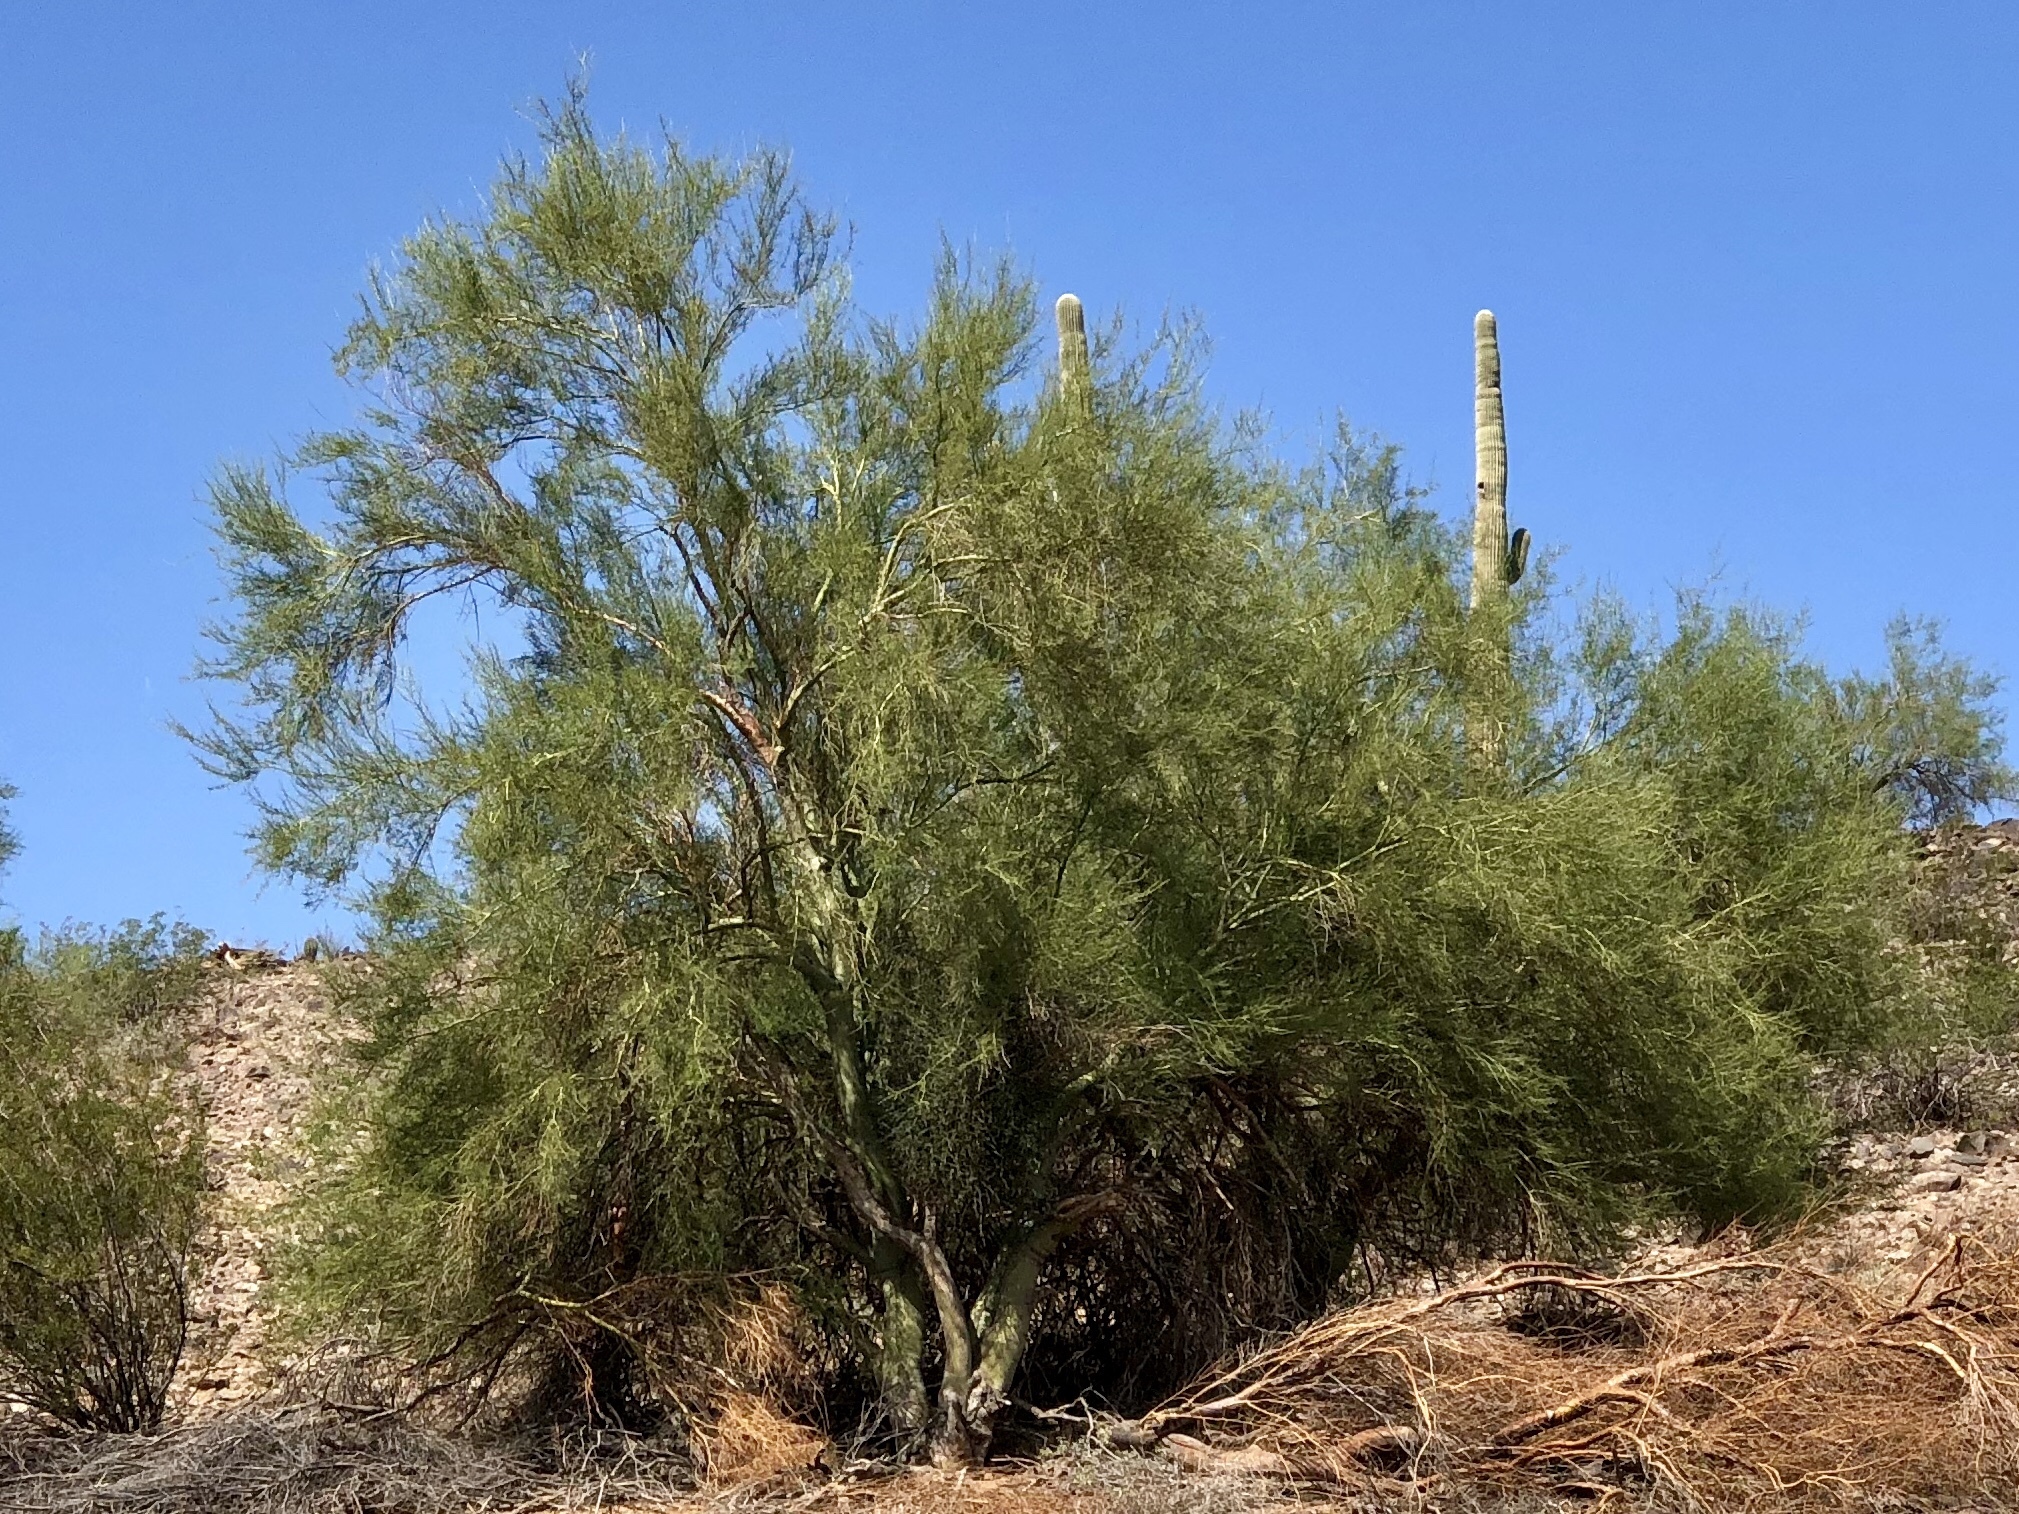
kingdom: Plantae
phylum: Tracheophyta
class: Magnoliopsida
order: Fabales
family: Fabaceae
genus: Parkinsonia
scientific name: Parkinsonia microphylla
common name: Yellow paloverde
